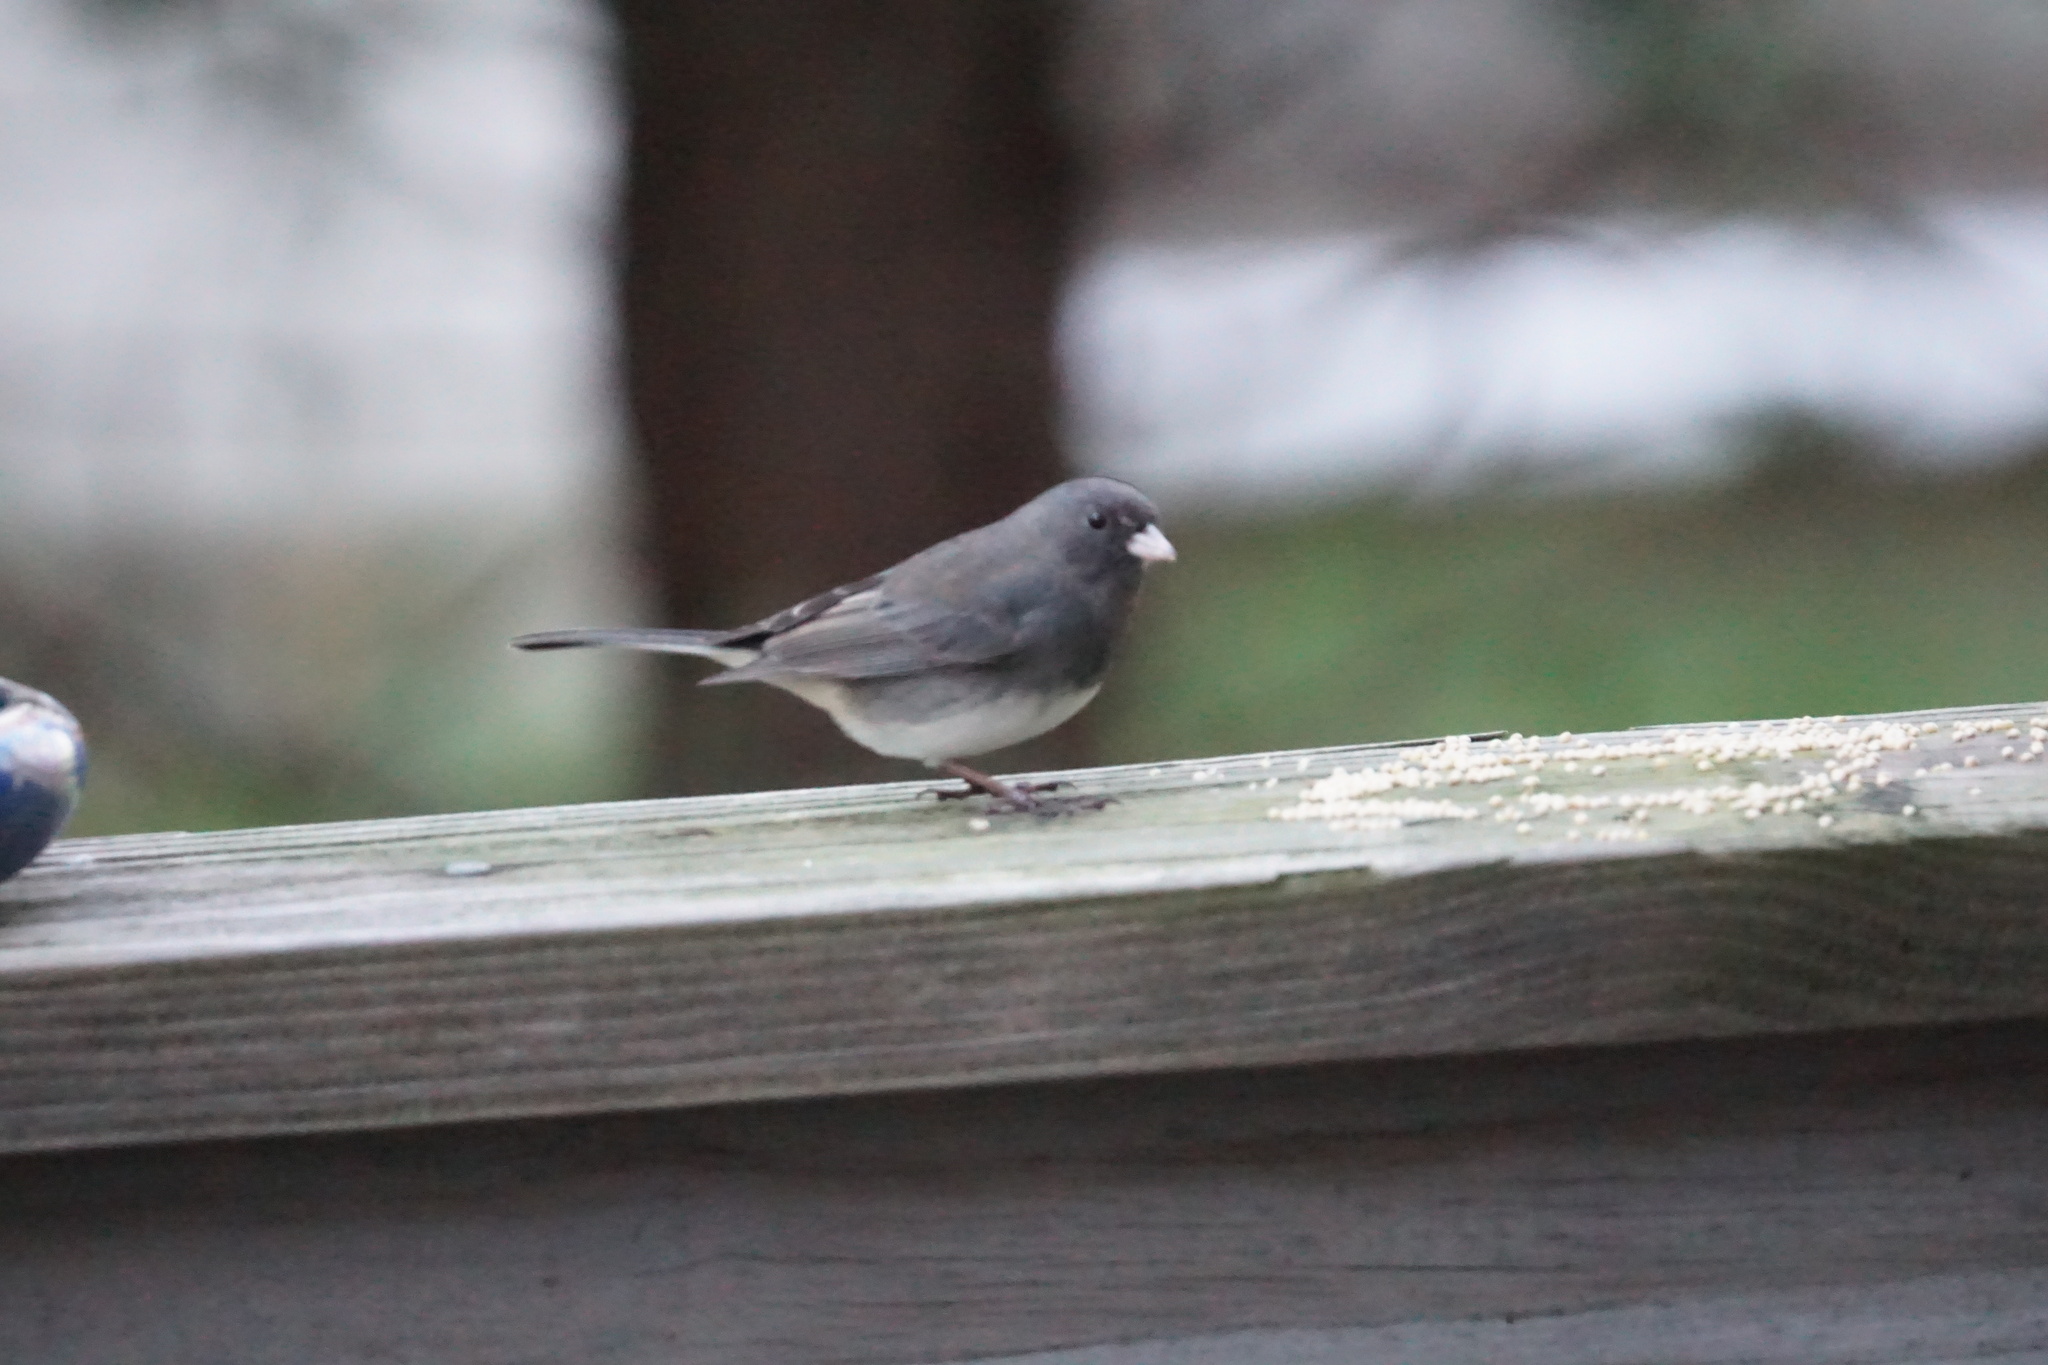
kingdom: Animalia
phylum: Chordata
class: Aves
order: Passeriformes
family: Passerellidae
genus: Junco
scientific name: Junco hyemalis
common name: Dark-eyed junco
